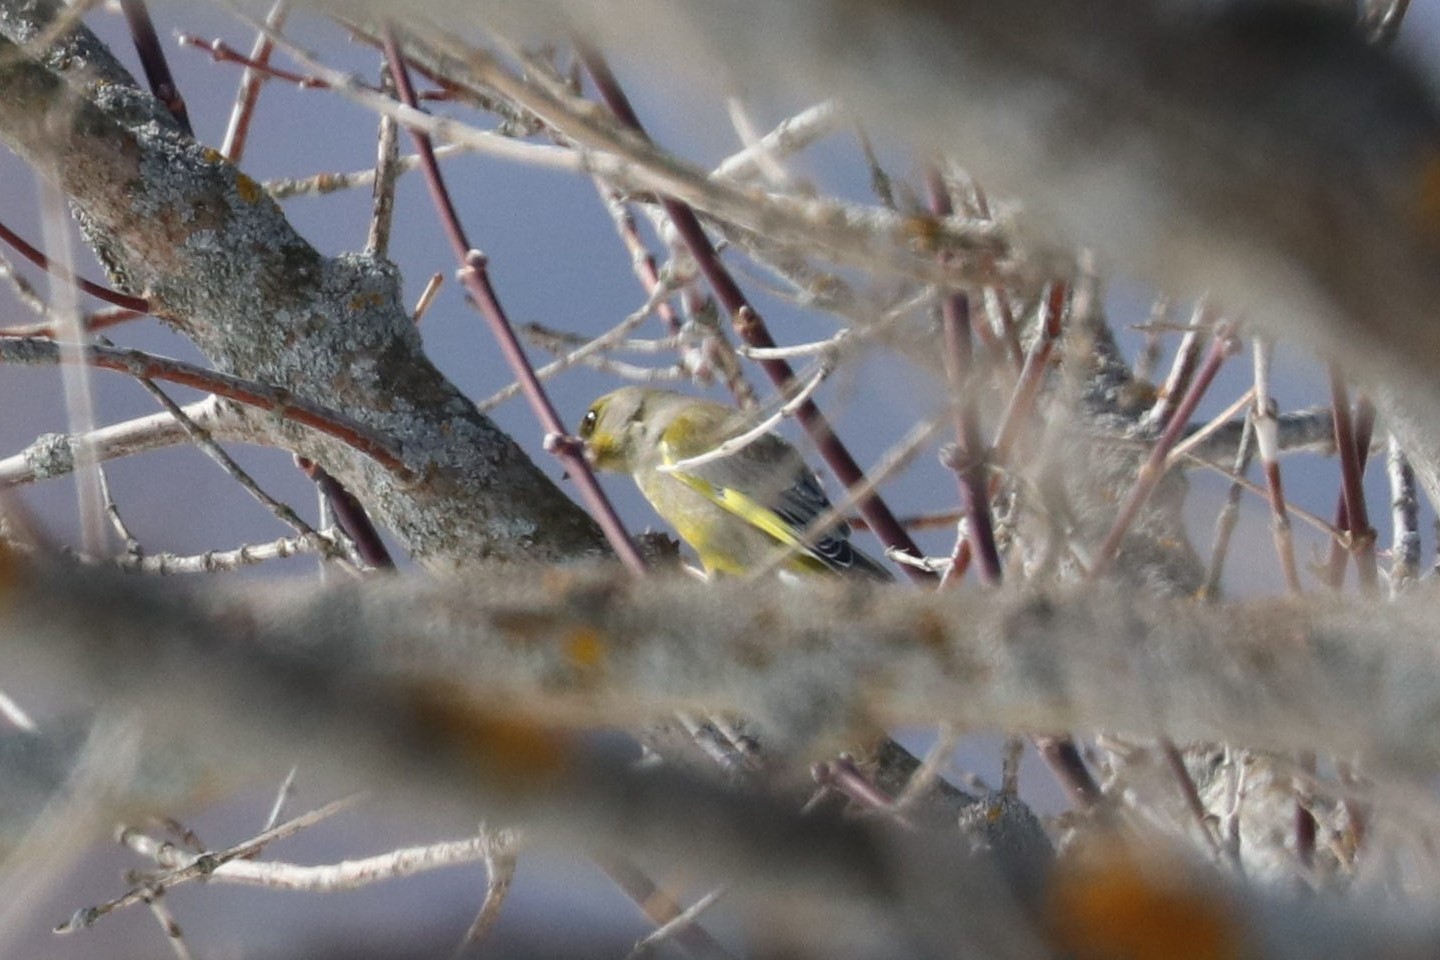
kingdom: Plantae
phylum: Tracheophyta
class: Liliopsida
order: Poales
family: Poaceae
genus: Chloris
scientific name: Chloris chloris
